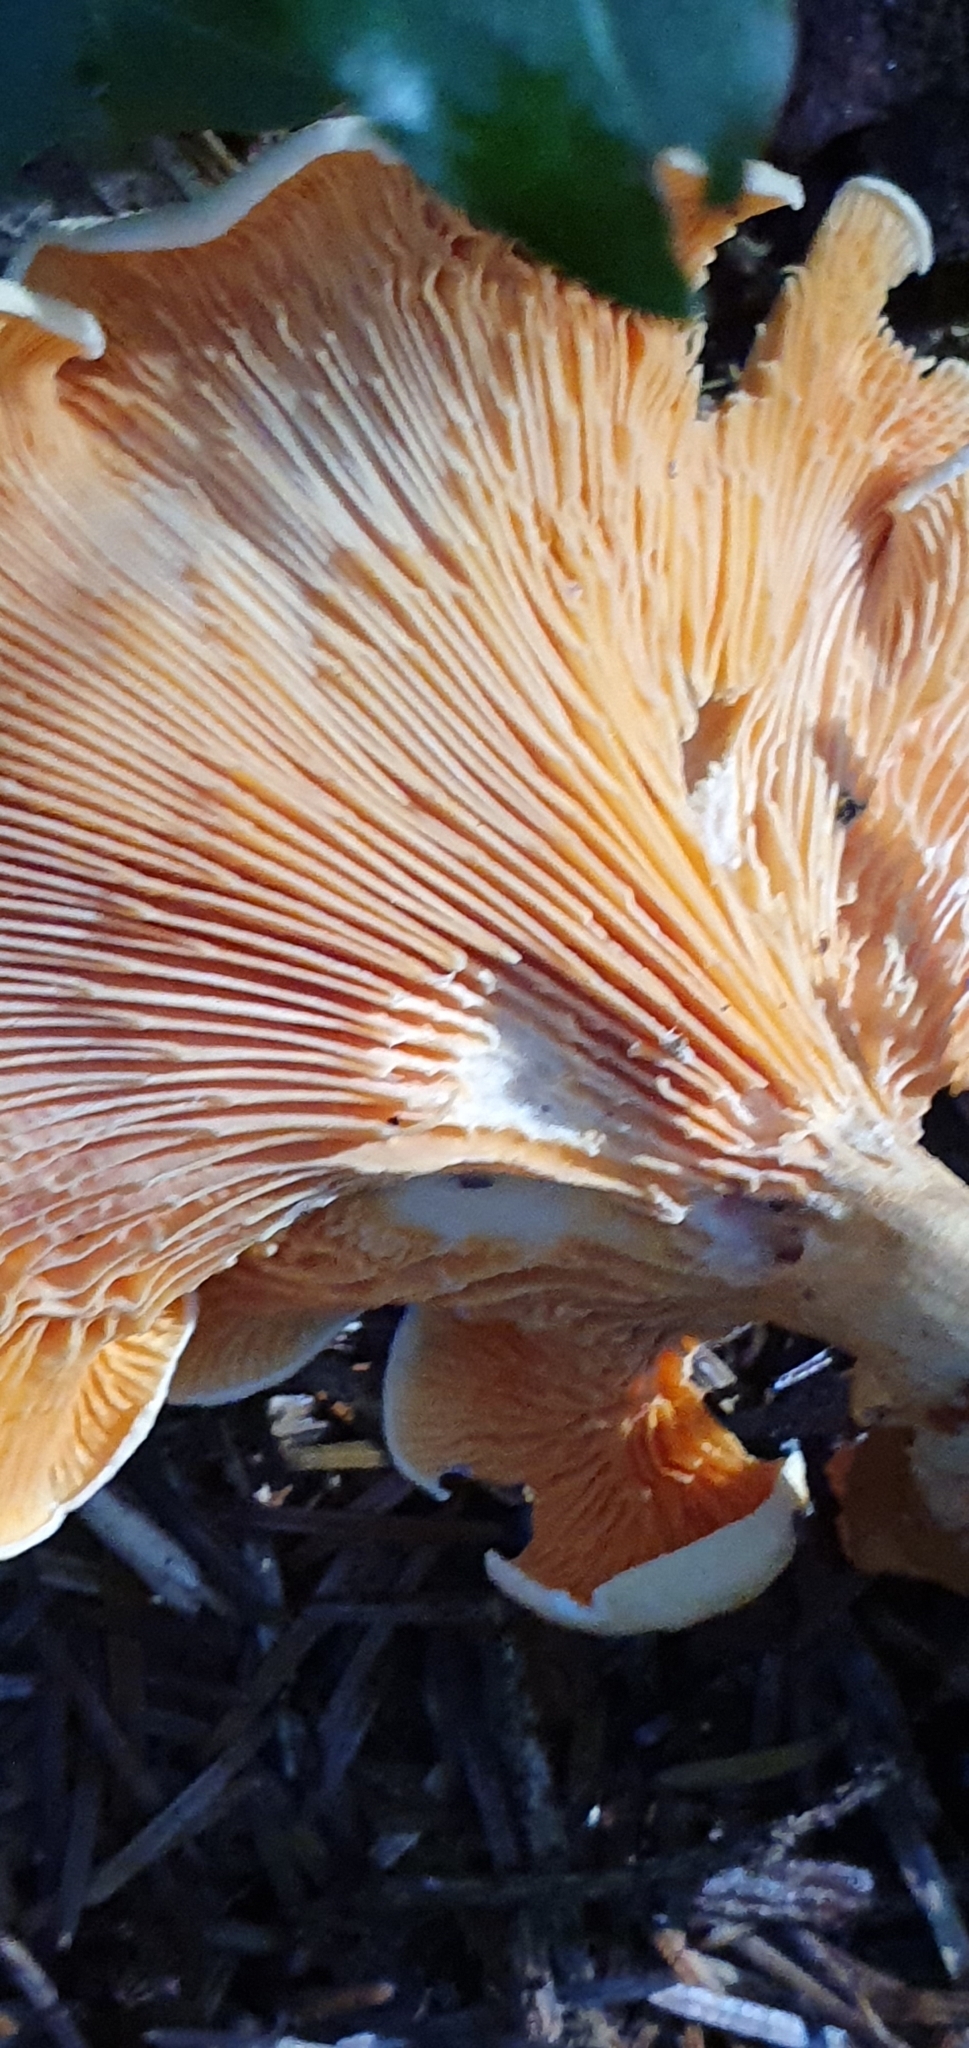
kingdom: Fungi
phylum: Basidiomycota
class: Agaricomycetes
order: Boletales
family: Hygrophoropsidaceae
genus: Hygrophoropsis
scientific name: Hygrophoropsis aurantiaca
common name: False chanterelle
